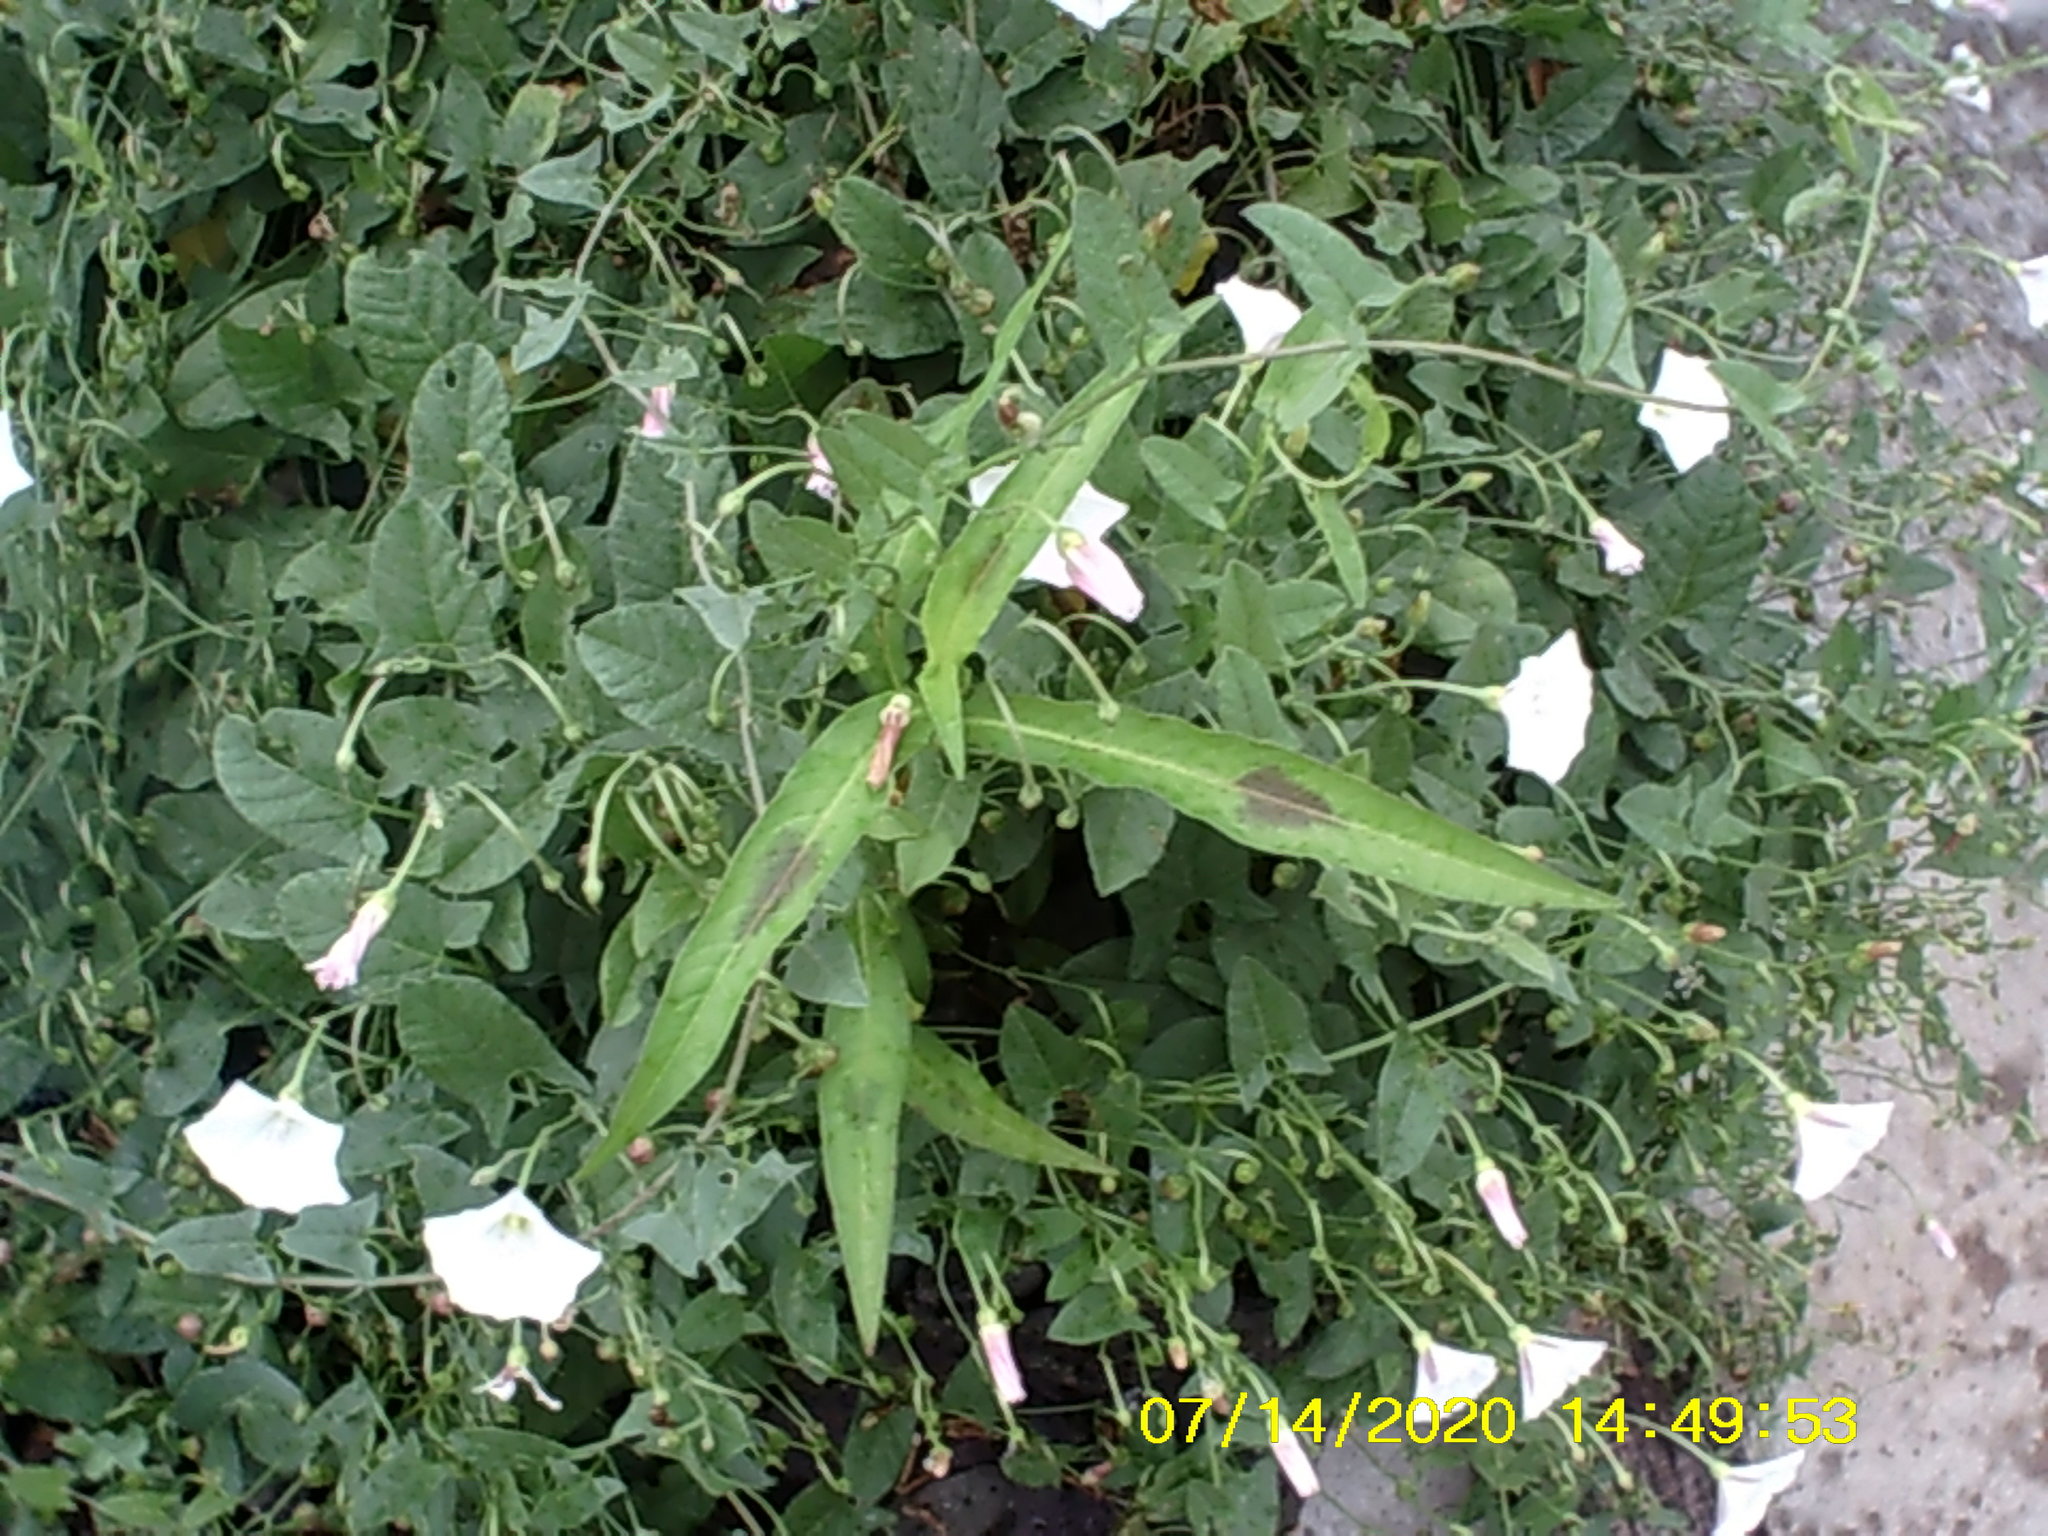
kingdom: Plantae
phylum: Tracheophyta
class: Magnoliopsida
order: Solanales
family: Convolvulaceae
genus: Convolvulus
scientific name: Convolvulus arvensis
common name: Field bindweed
